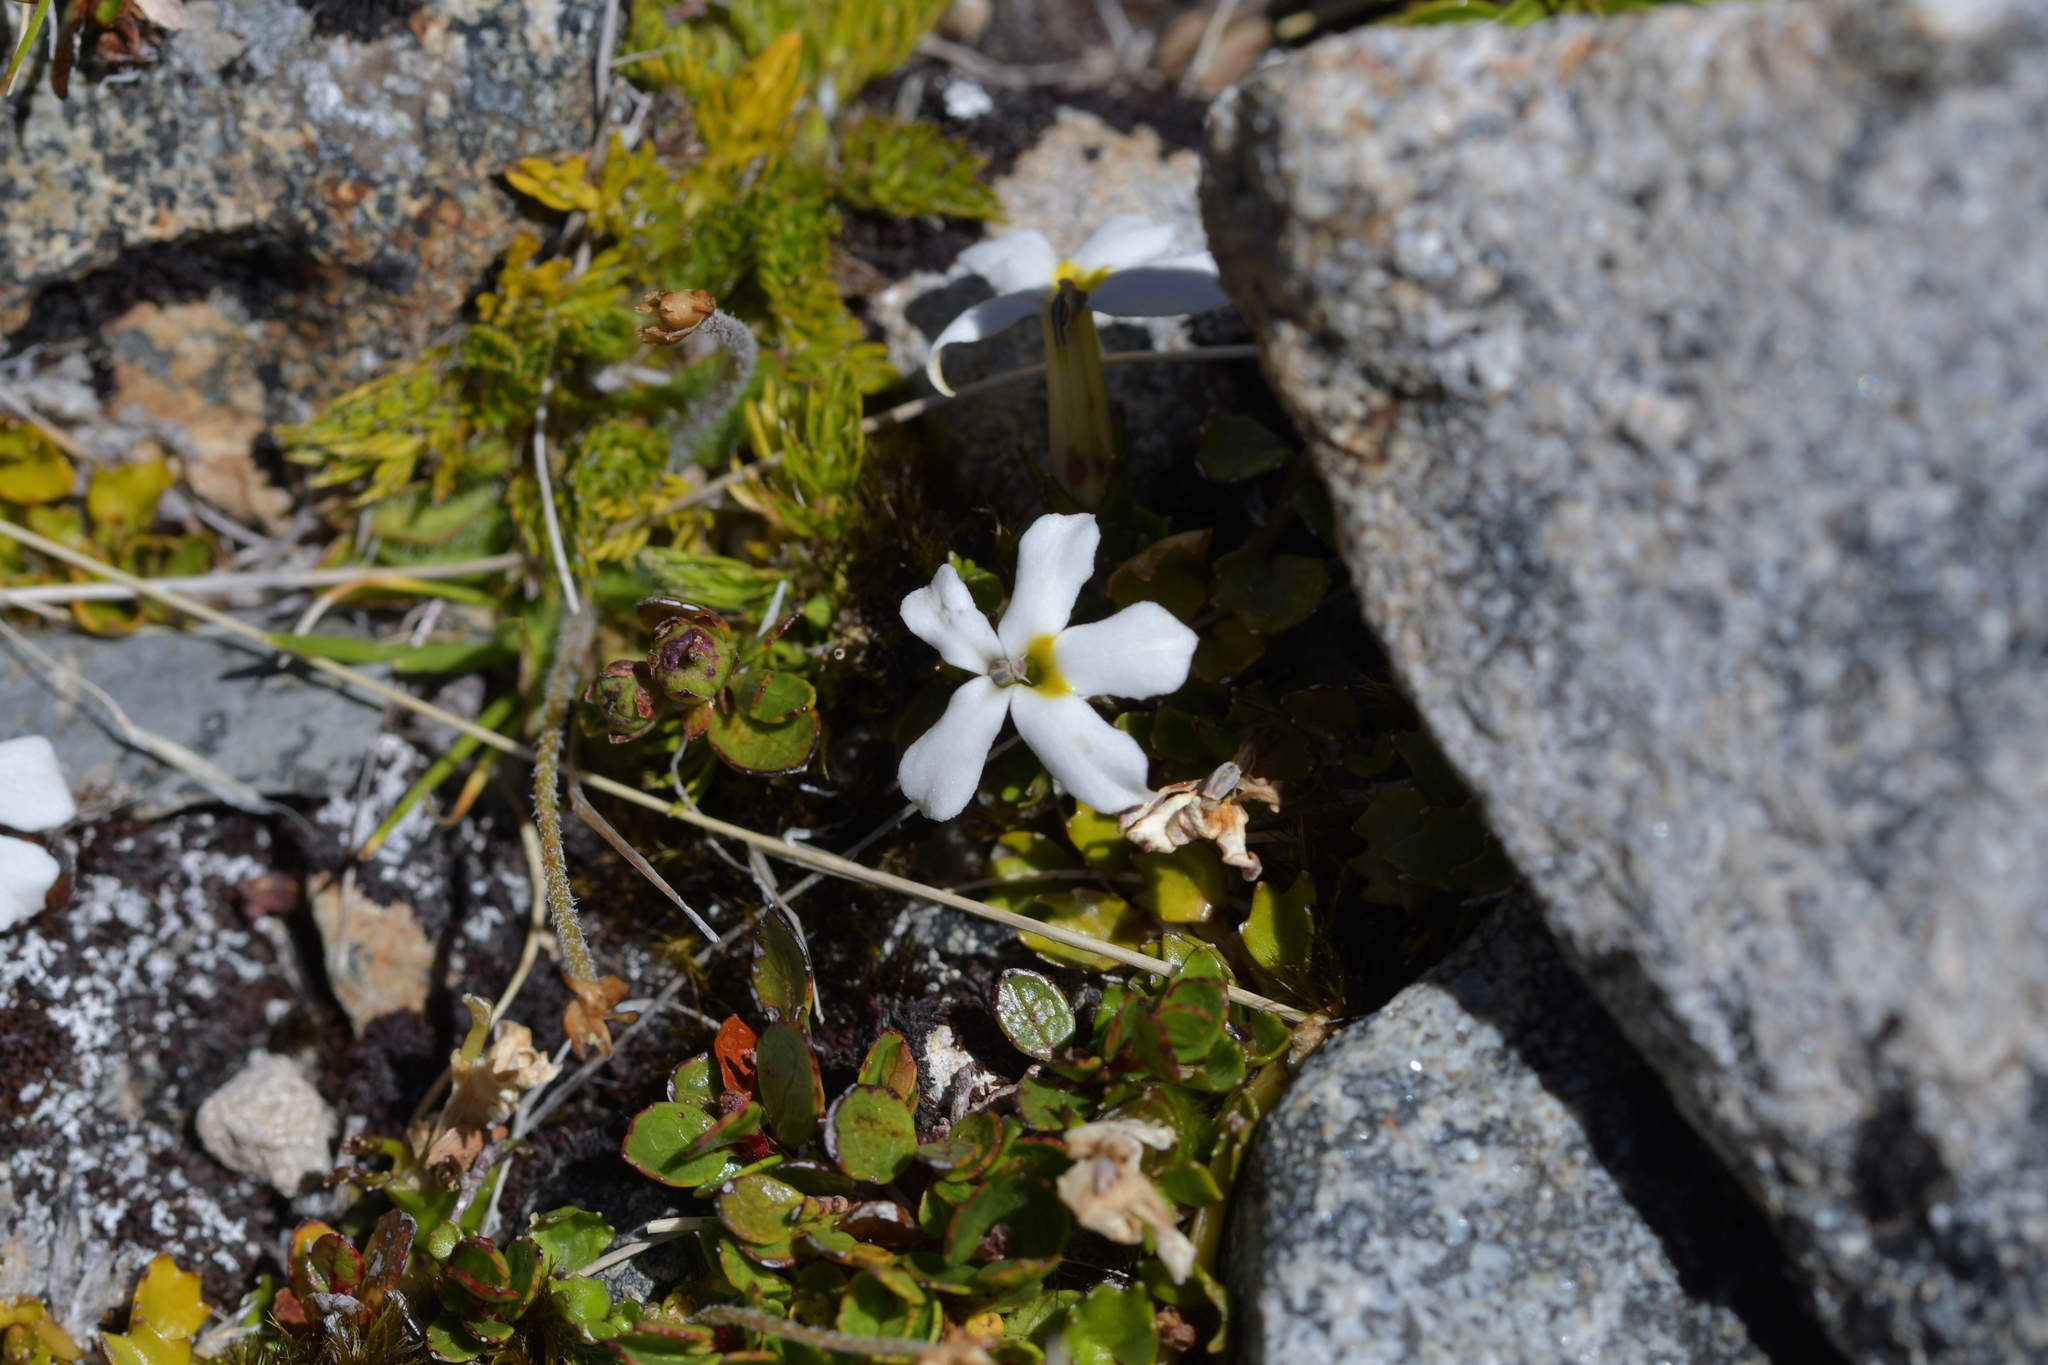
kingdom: Plantae
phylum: Tracheophyta
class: Magnoliopsida
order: Asterales
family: Campanulaceae
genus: Lobelia
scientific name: Lobelia macrodon
